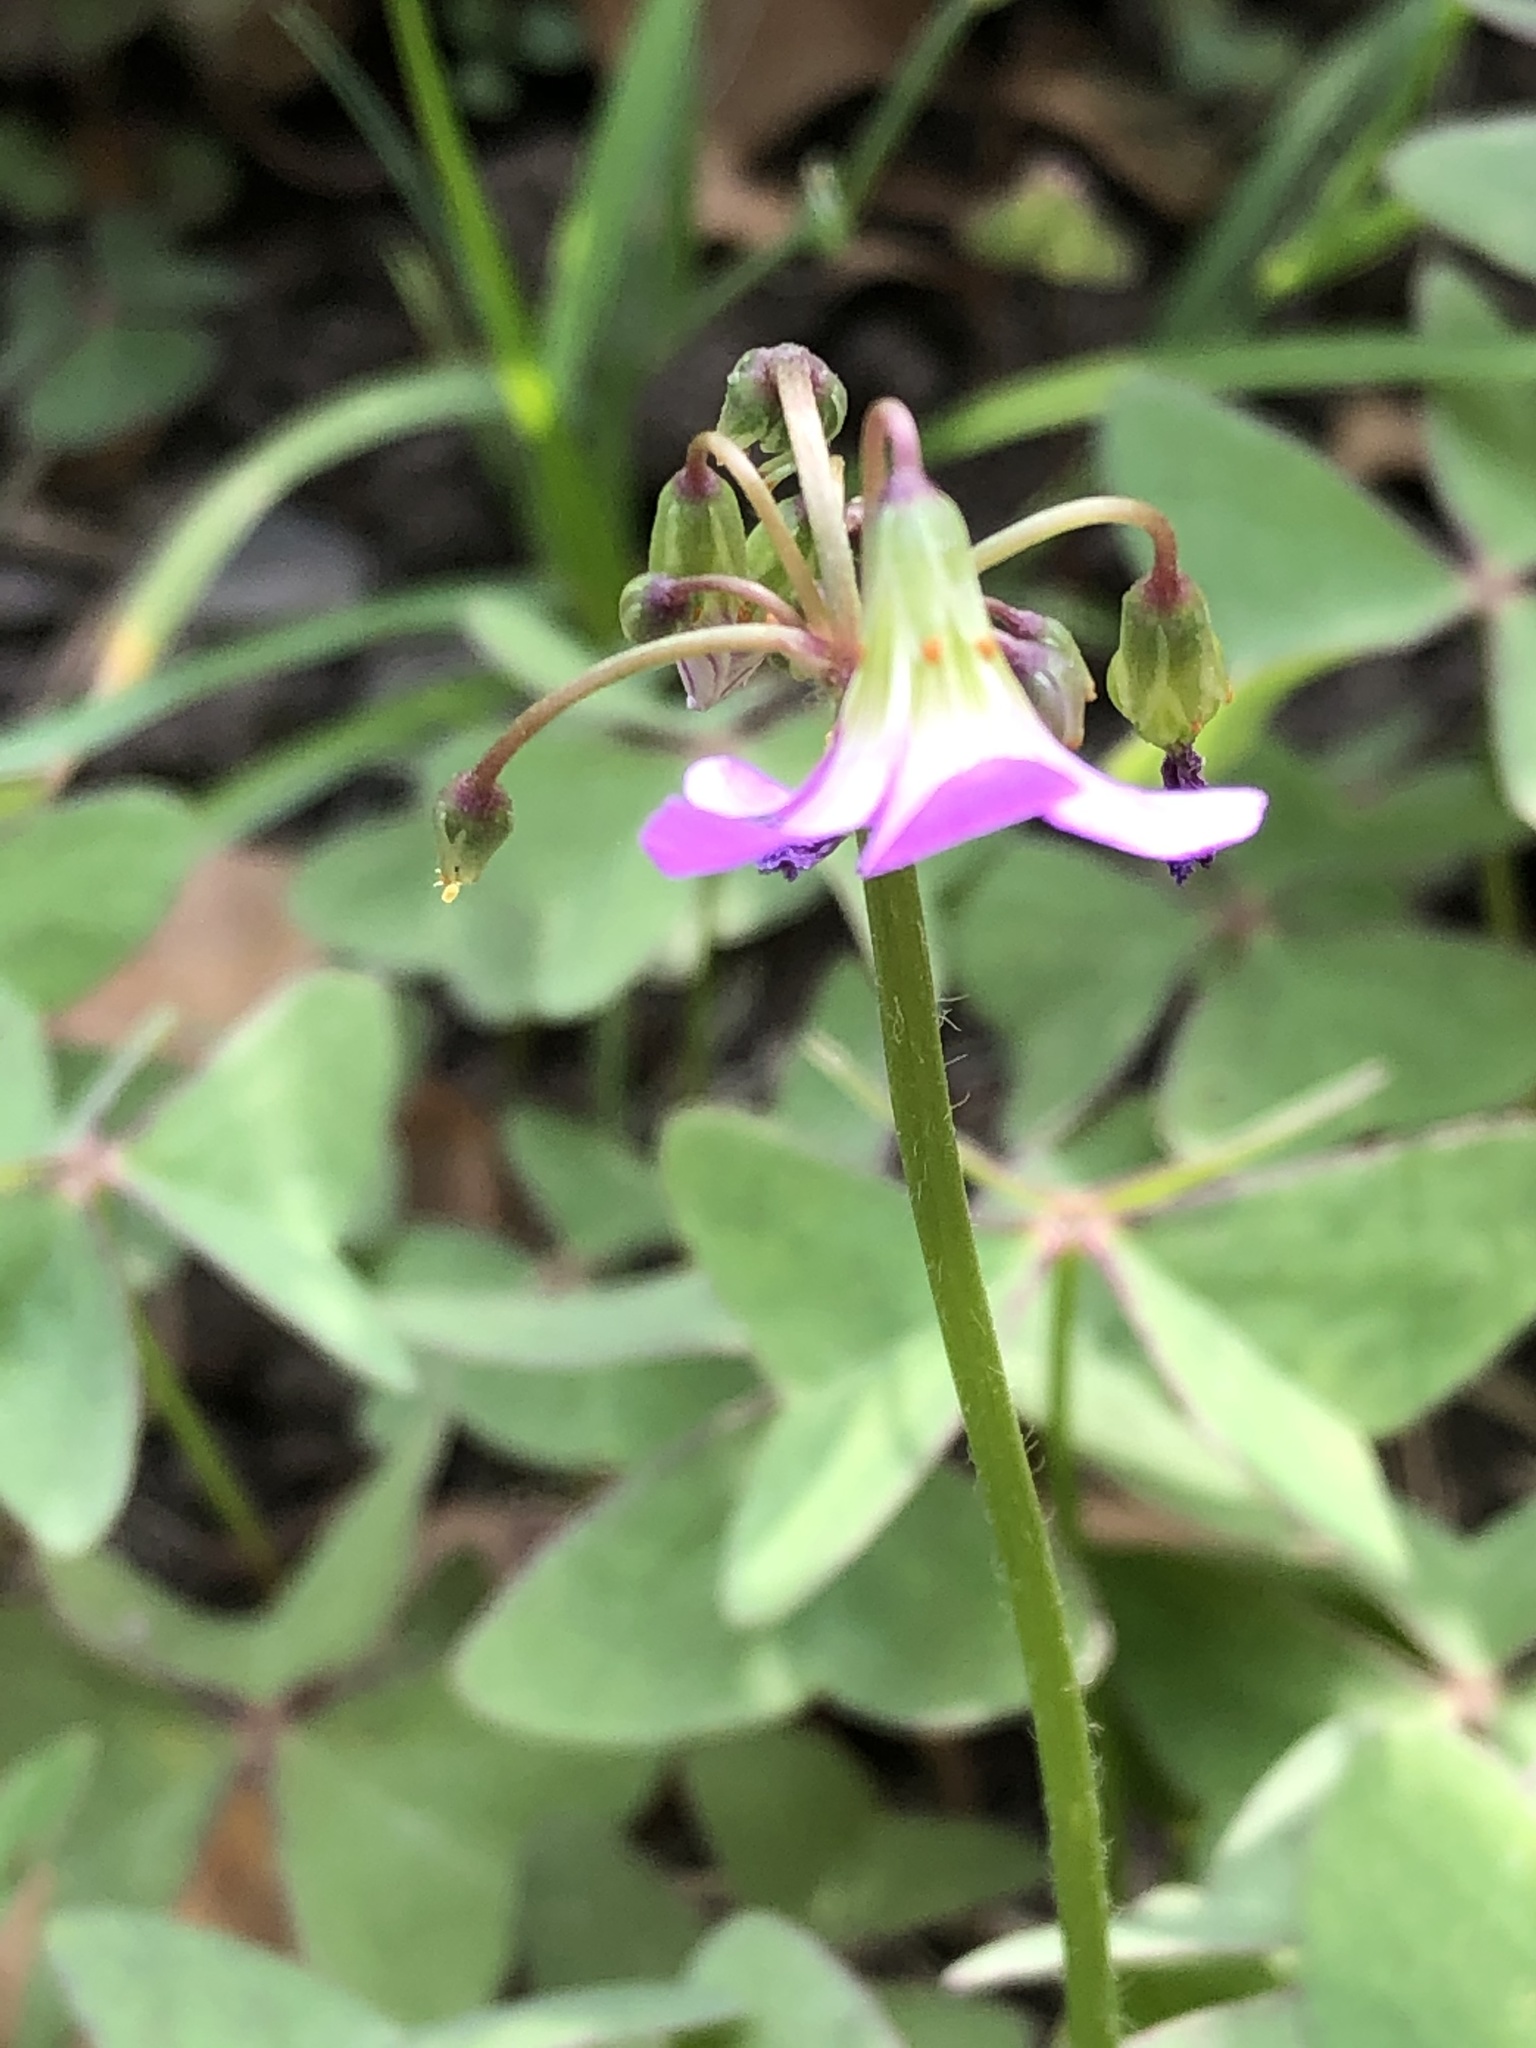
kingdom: Plantae
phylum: Tracheophyta
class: Magnoliopsida
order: Oxalidales
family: Oxalidaceae
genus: Oxalis
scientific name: Oxalis latifolia
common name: Garden pink-sorrel
